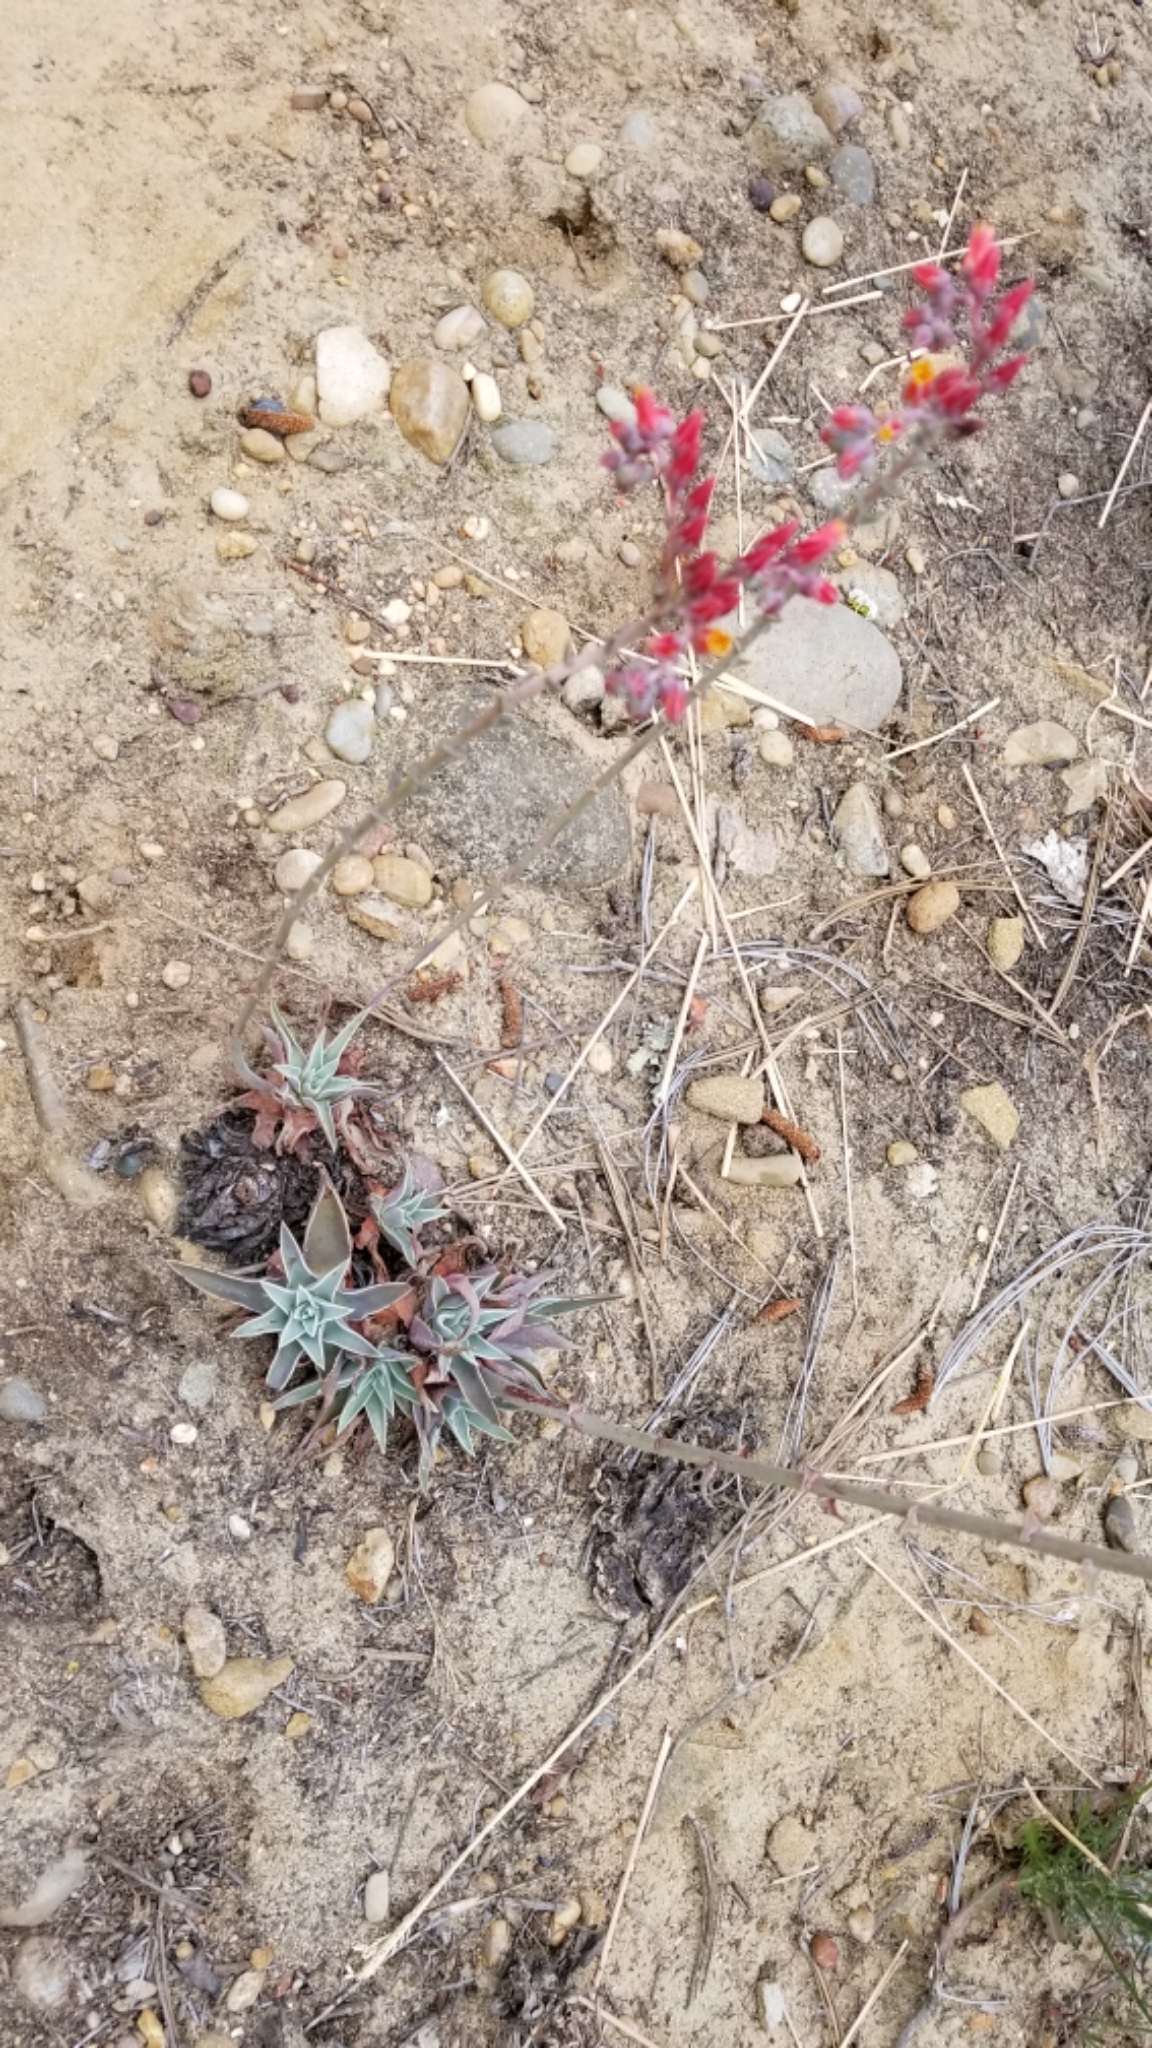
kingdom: Plantae
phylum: Tracheophyta
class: Magnoliopsida
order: Saxifragales
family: Crassulaceae
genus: Dudleya
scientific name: Dudleya lanceolata
